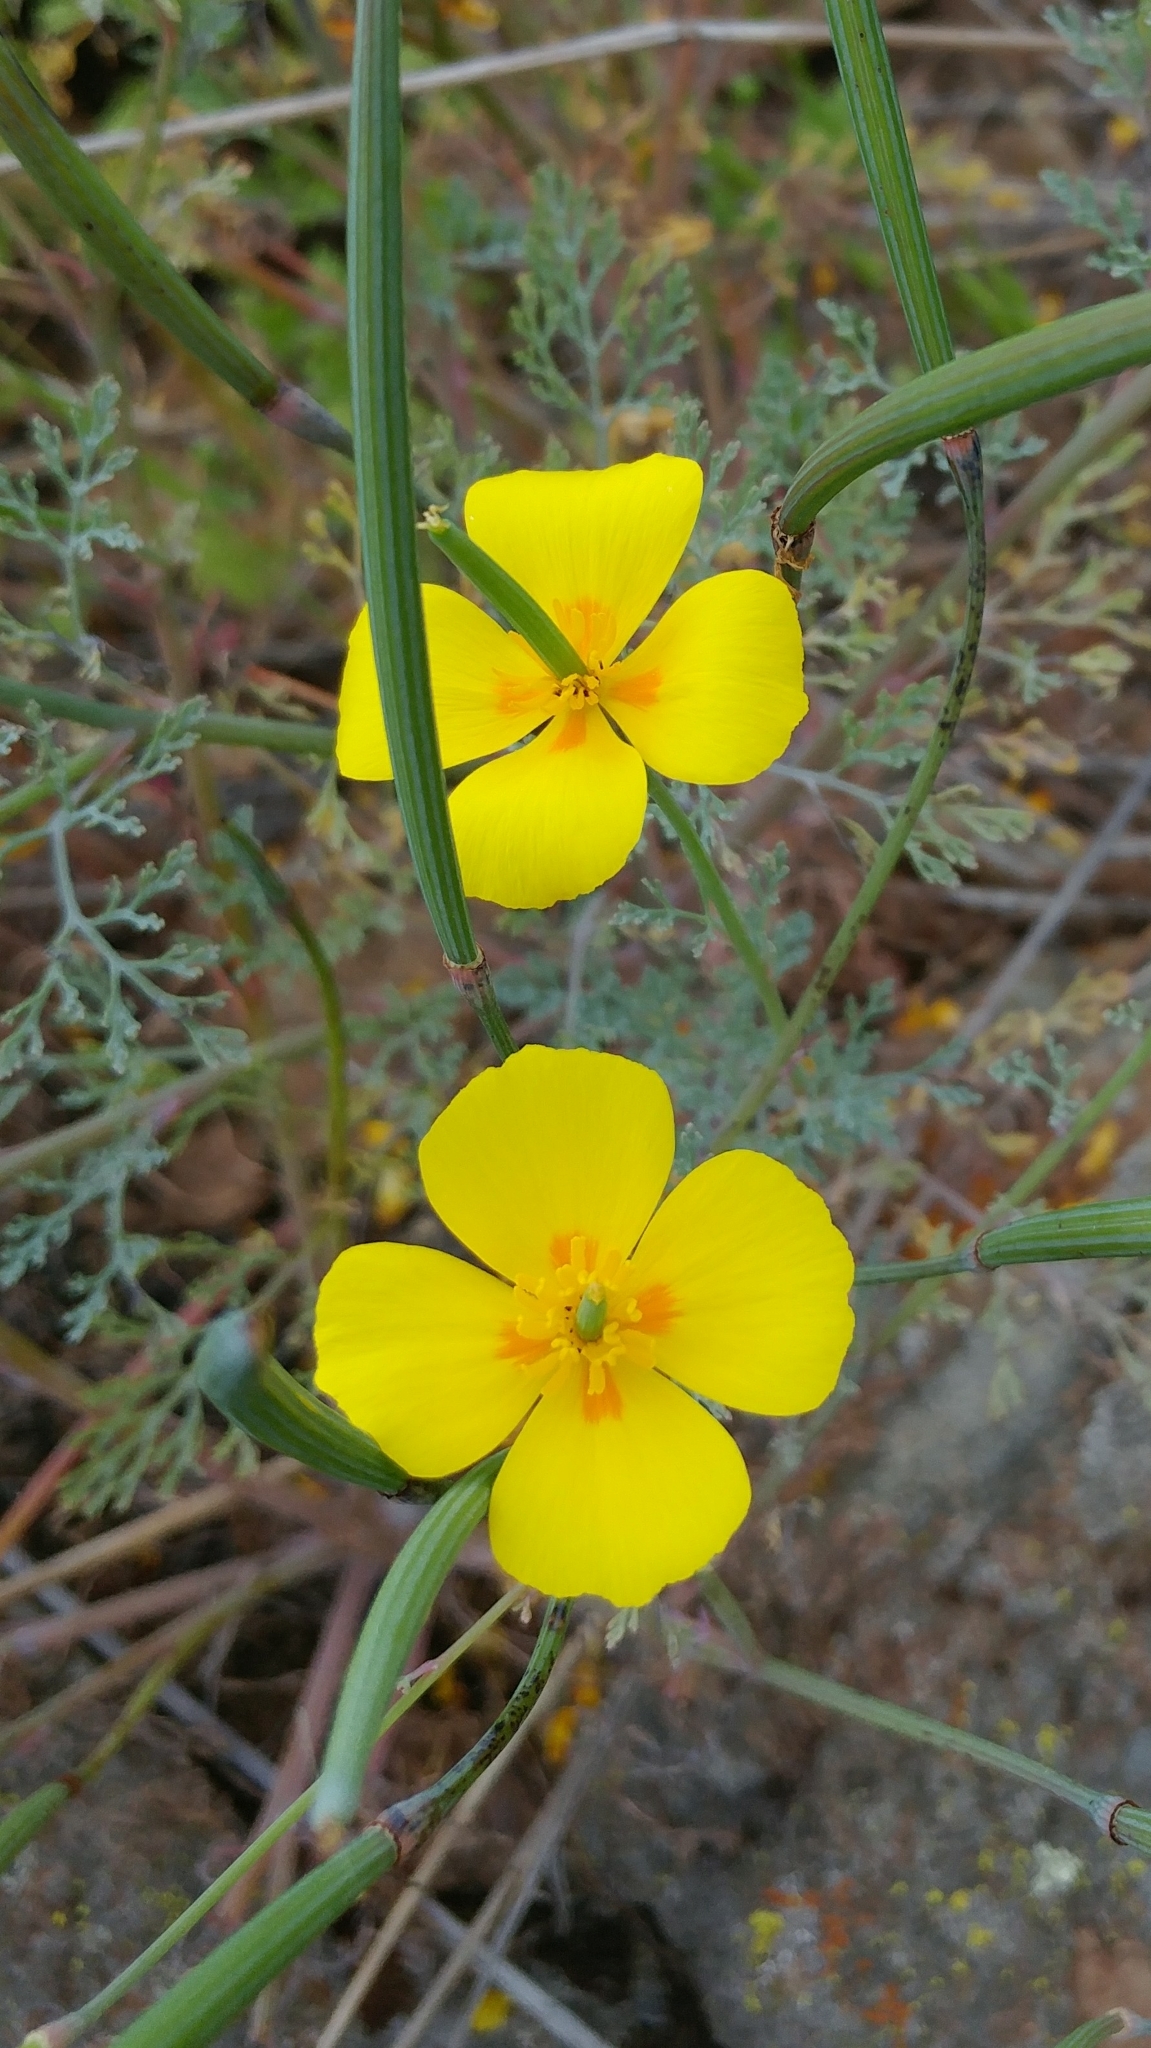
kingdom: Plantae
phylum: Tracheophyta
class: Magnoliopsida
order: Ranunculales
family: Papaveraceae
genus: Eschscholzia
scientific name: Eschscholzia ramosa
